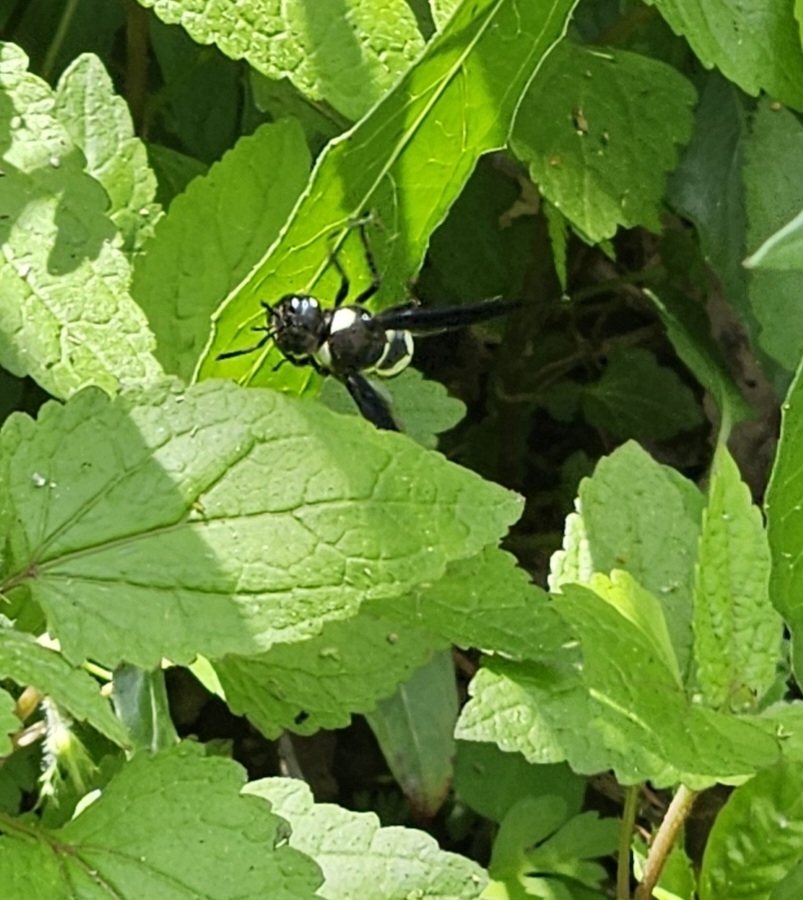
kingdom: Animalia
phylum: Arthropoda
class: Insecta
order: Hymenoptera
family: Eumenidae
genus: Euodynerus
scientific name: Euodynerus bidens
